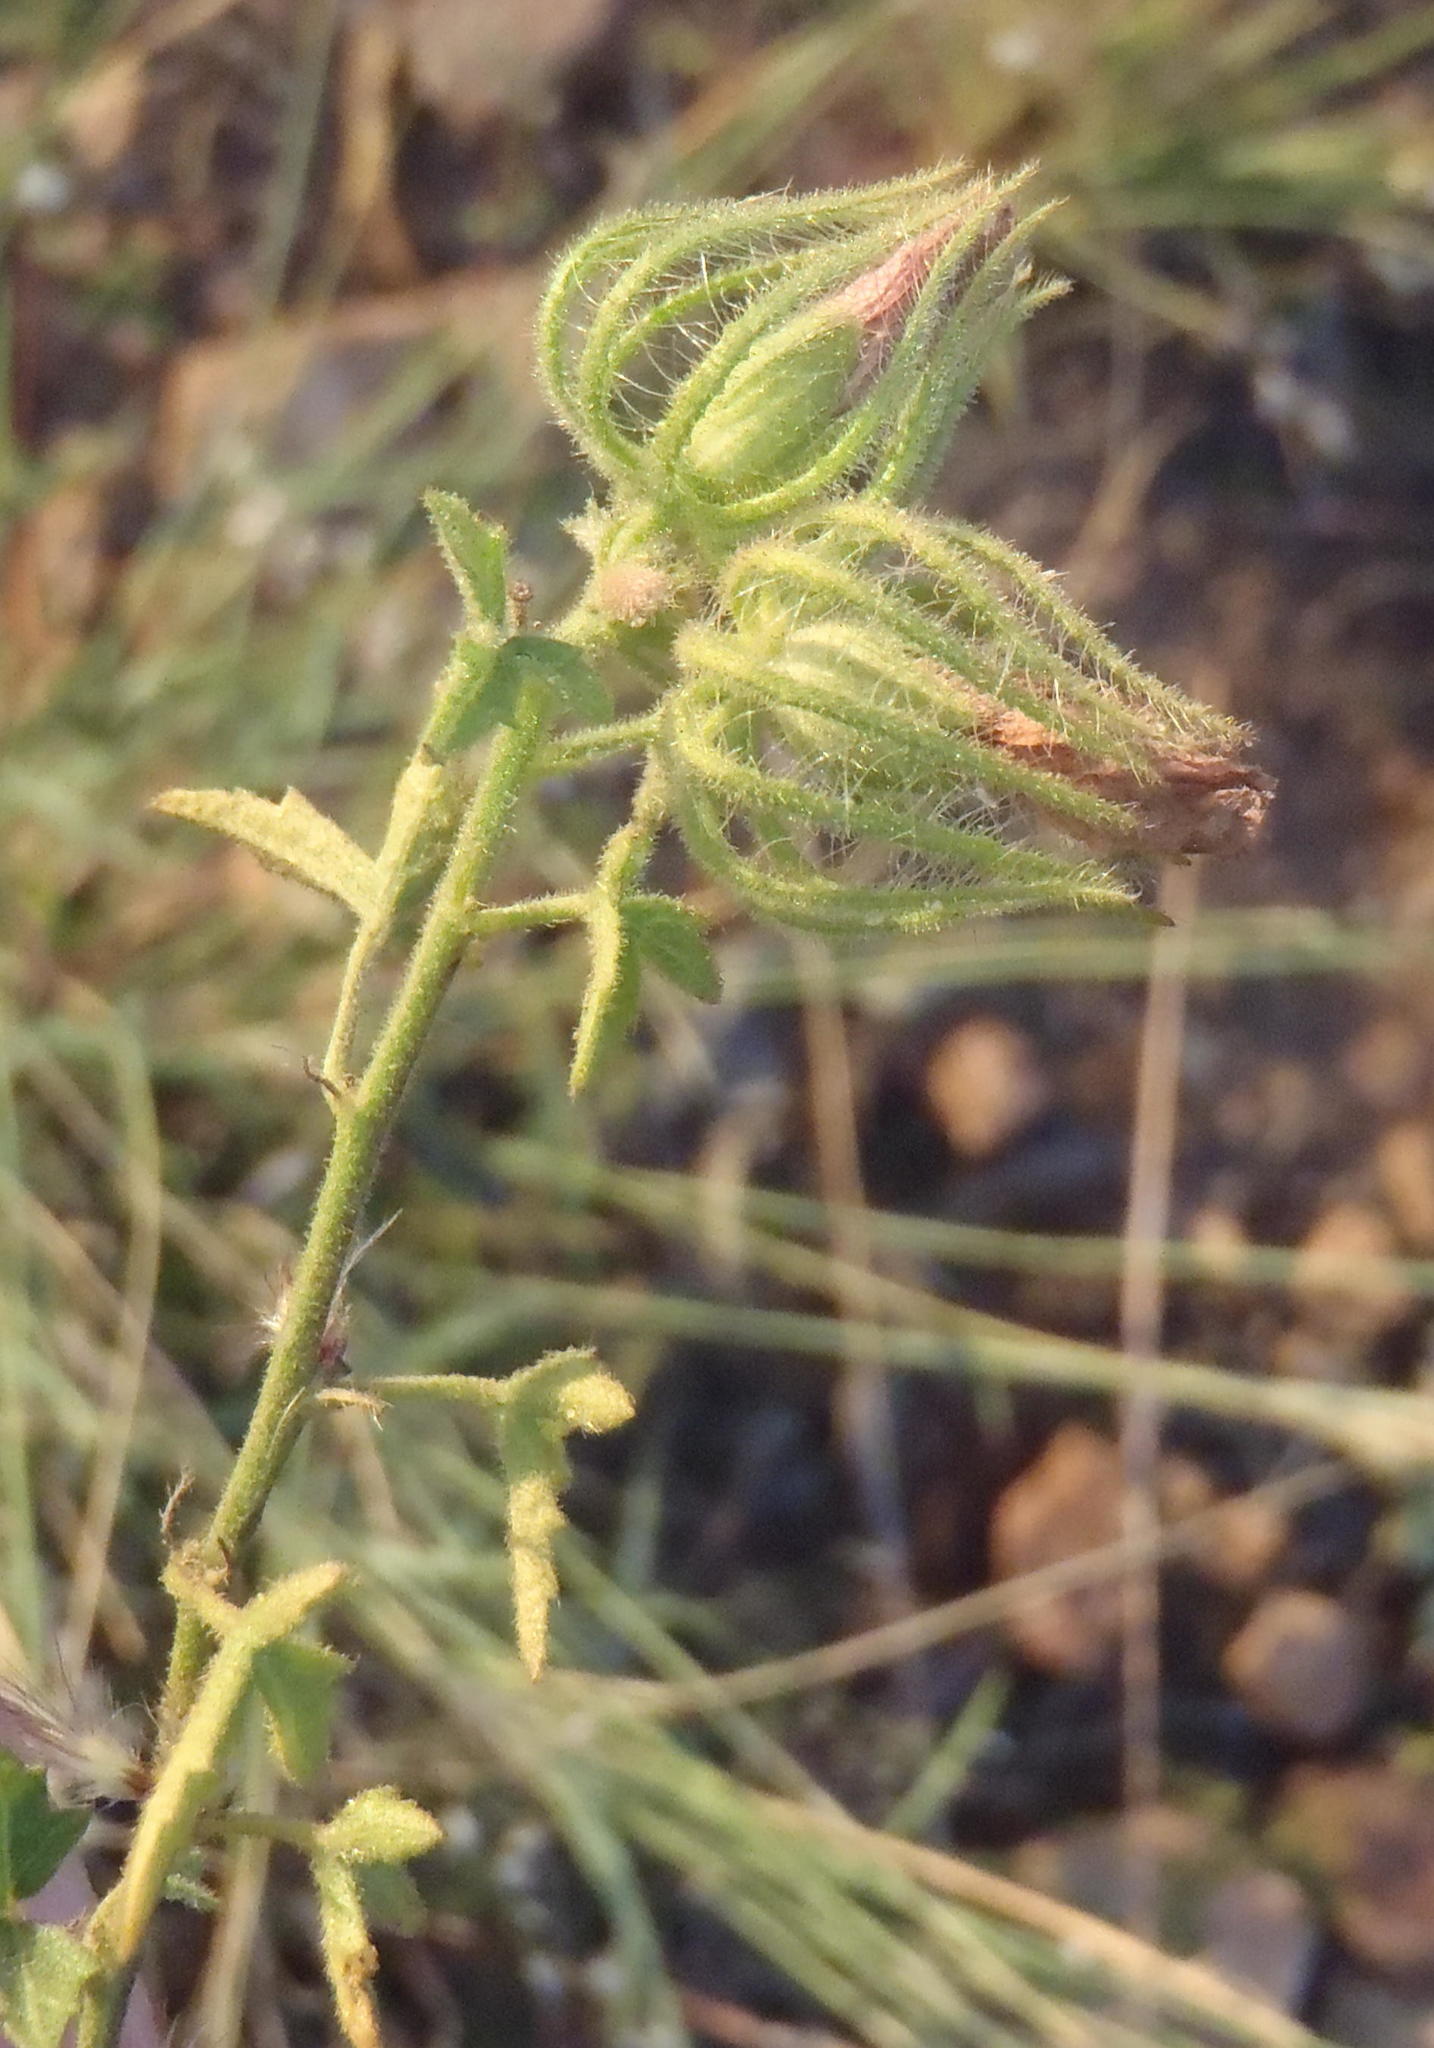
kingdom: Plantae
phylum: Tracheophyta
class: Magnoliopsida
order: Malvales
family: Malvaceae
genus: Pavonia
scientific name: Pavonia clathrata
